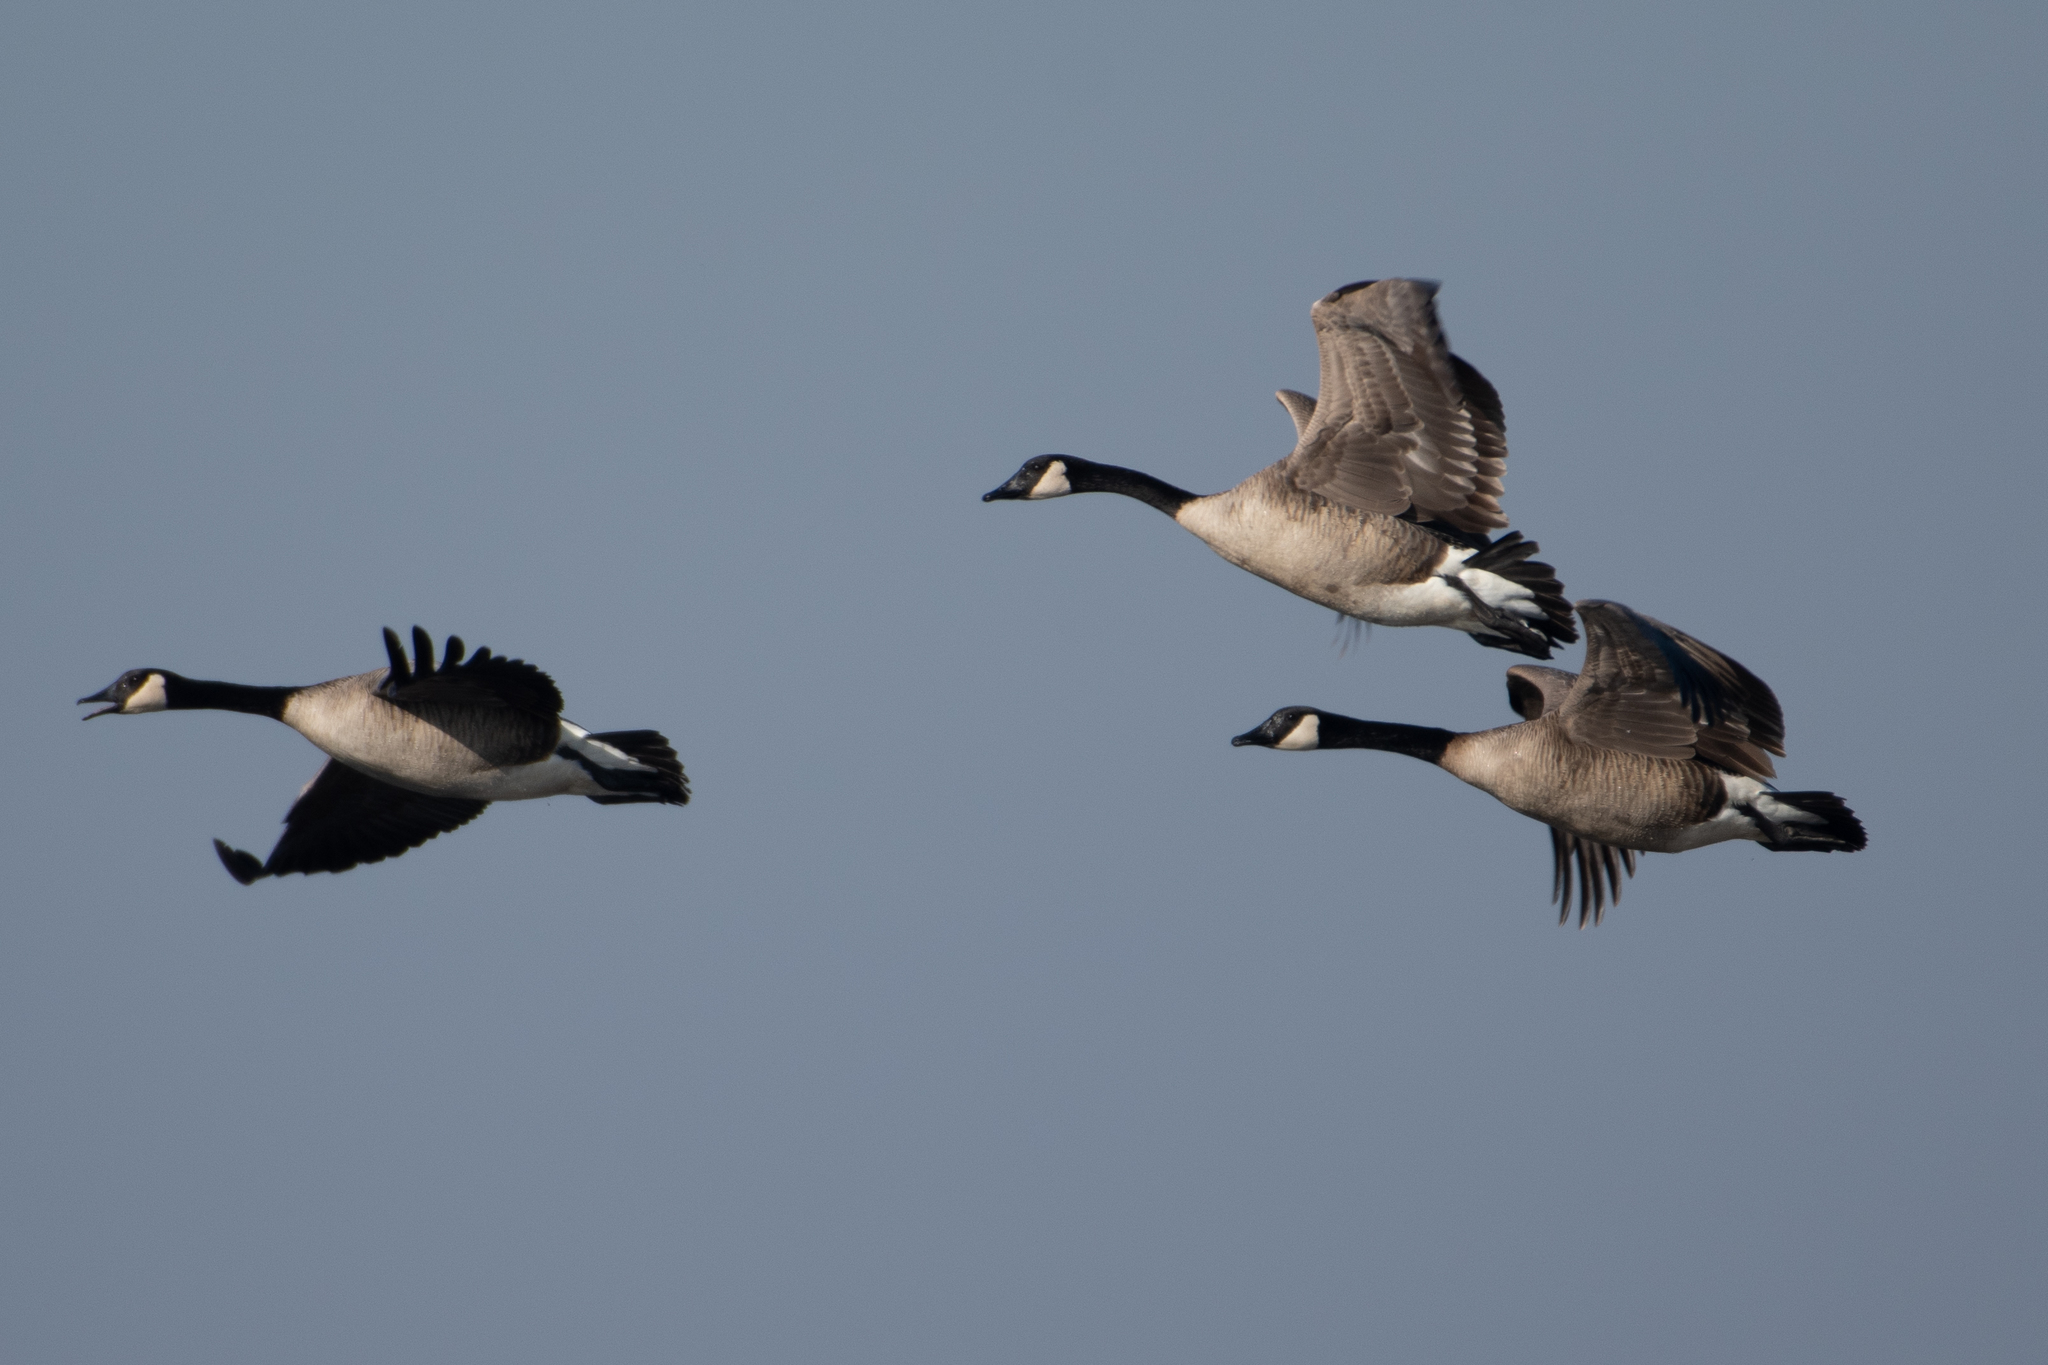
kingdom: Animalia
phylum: Chordata
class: Aves
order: Anseriformes
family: Anatidae
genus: Branta
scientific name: Branta canadensis
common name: Canada goose
